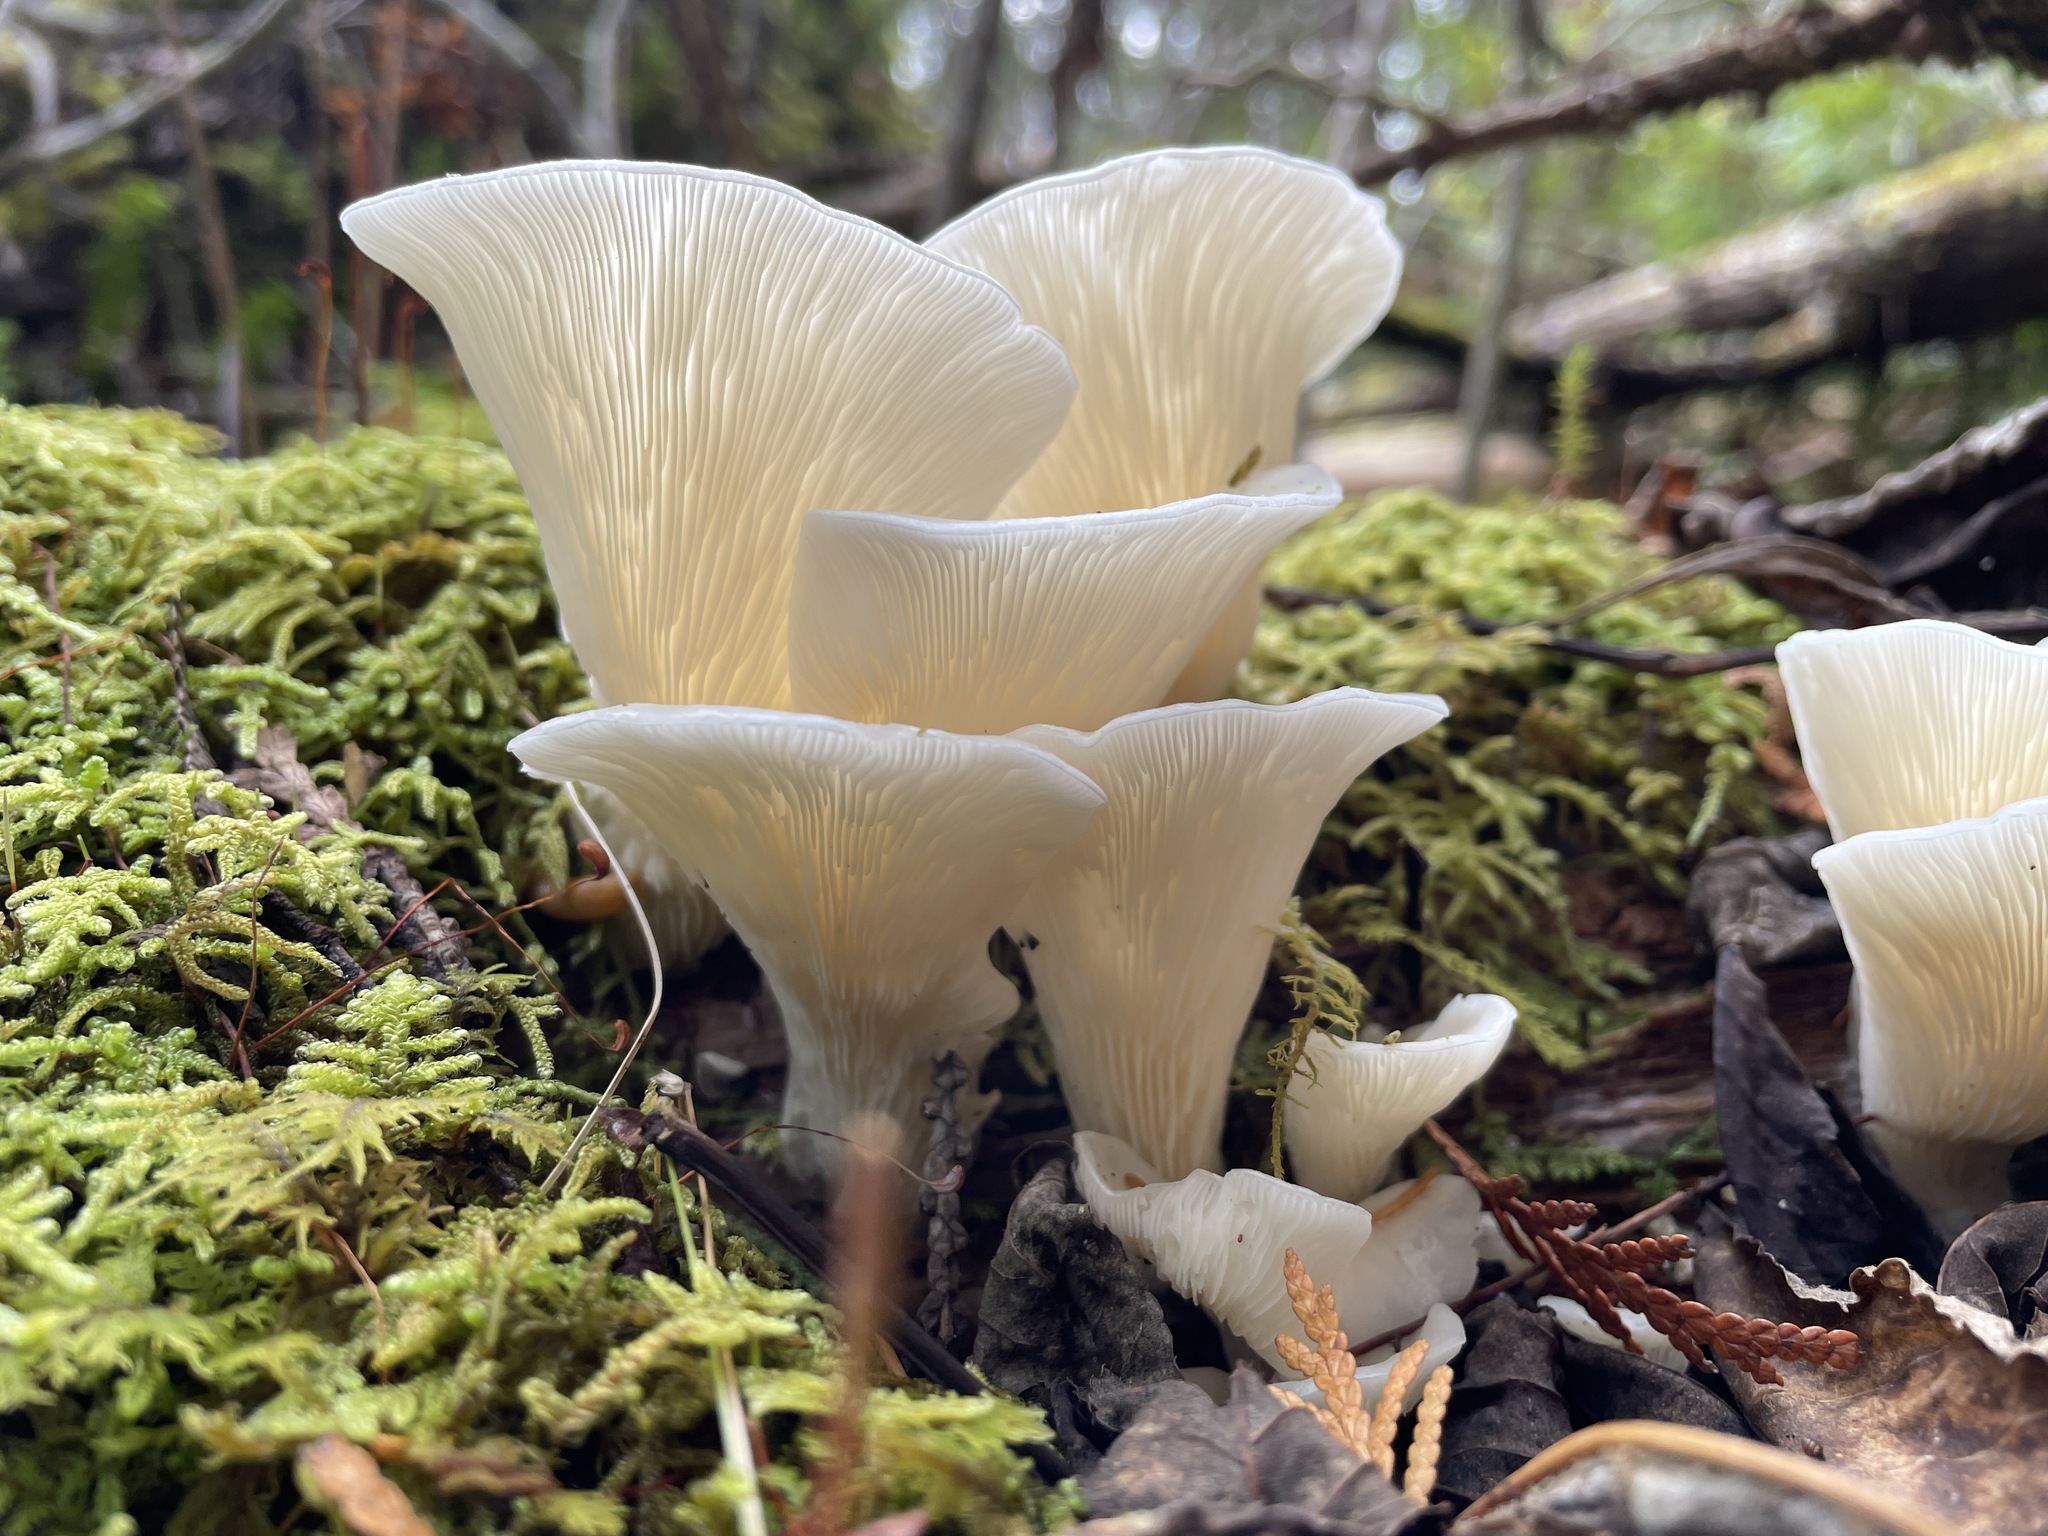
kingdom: Fungi
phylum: Basidiomycota
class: Agaricomycetes
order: Agaricales
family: Marasmiaceae
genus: Pleurocybella
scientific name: Pleurocybella porrigens
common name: Angel's wings
